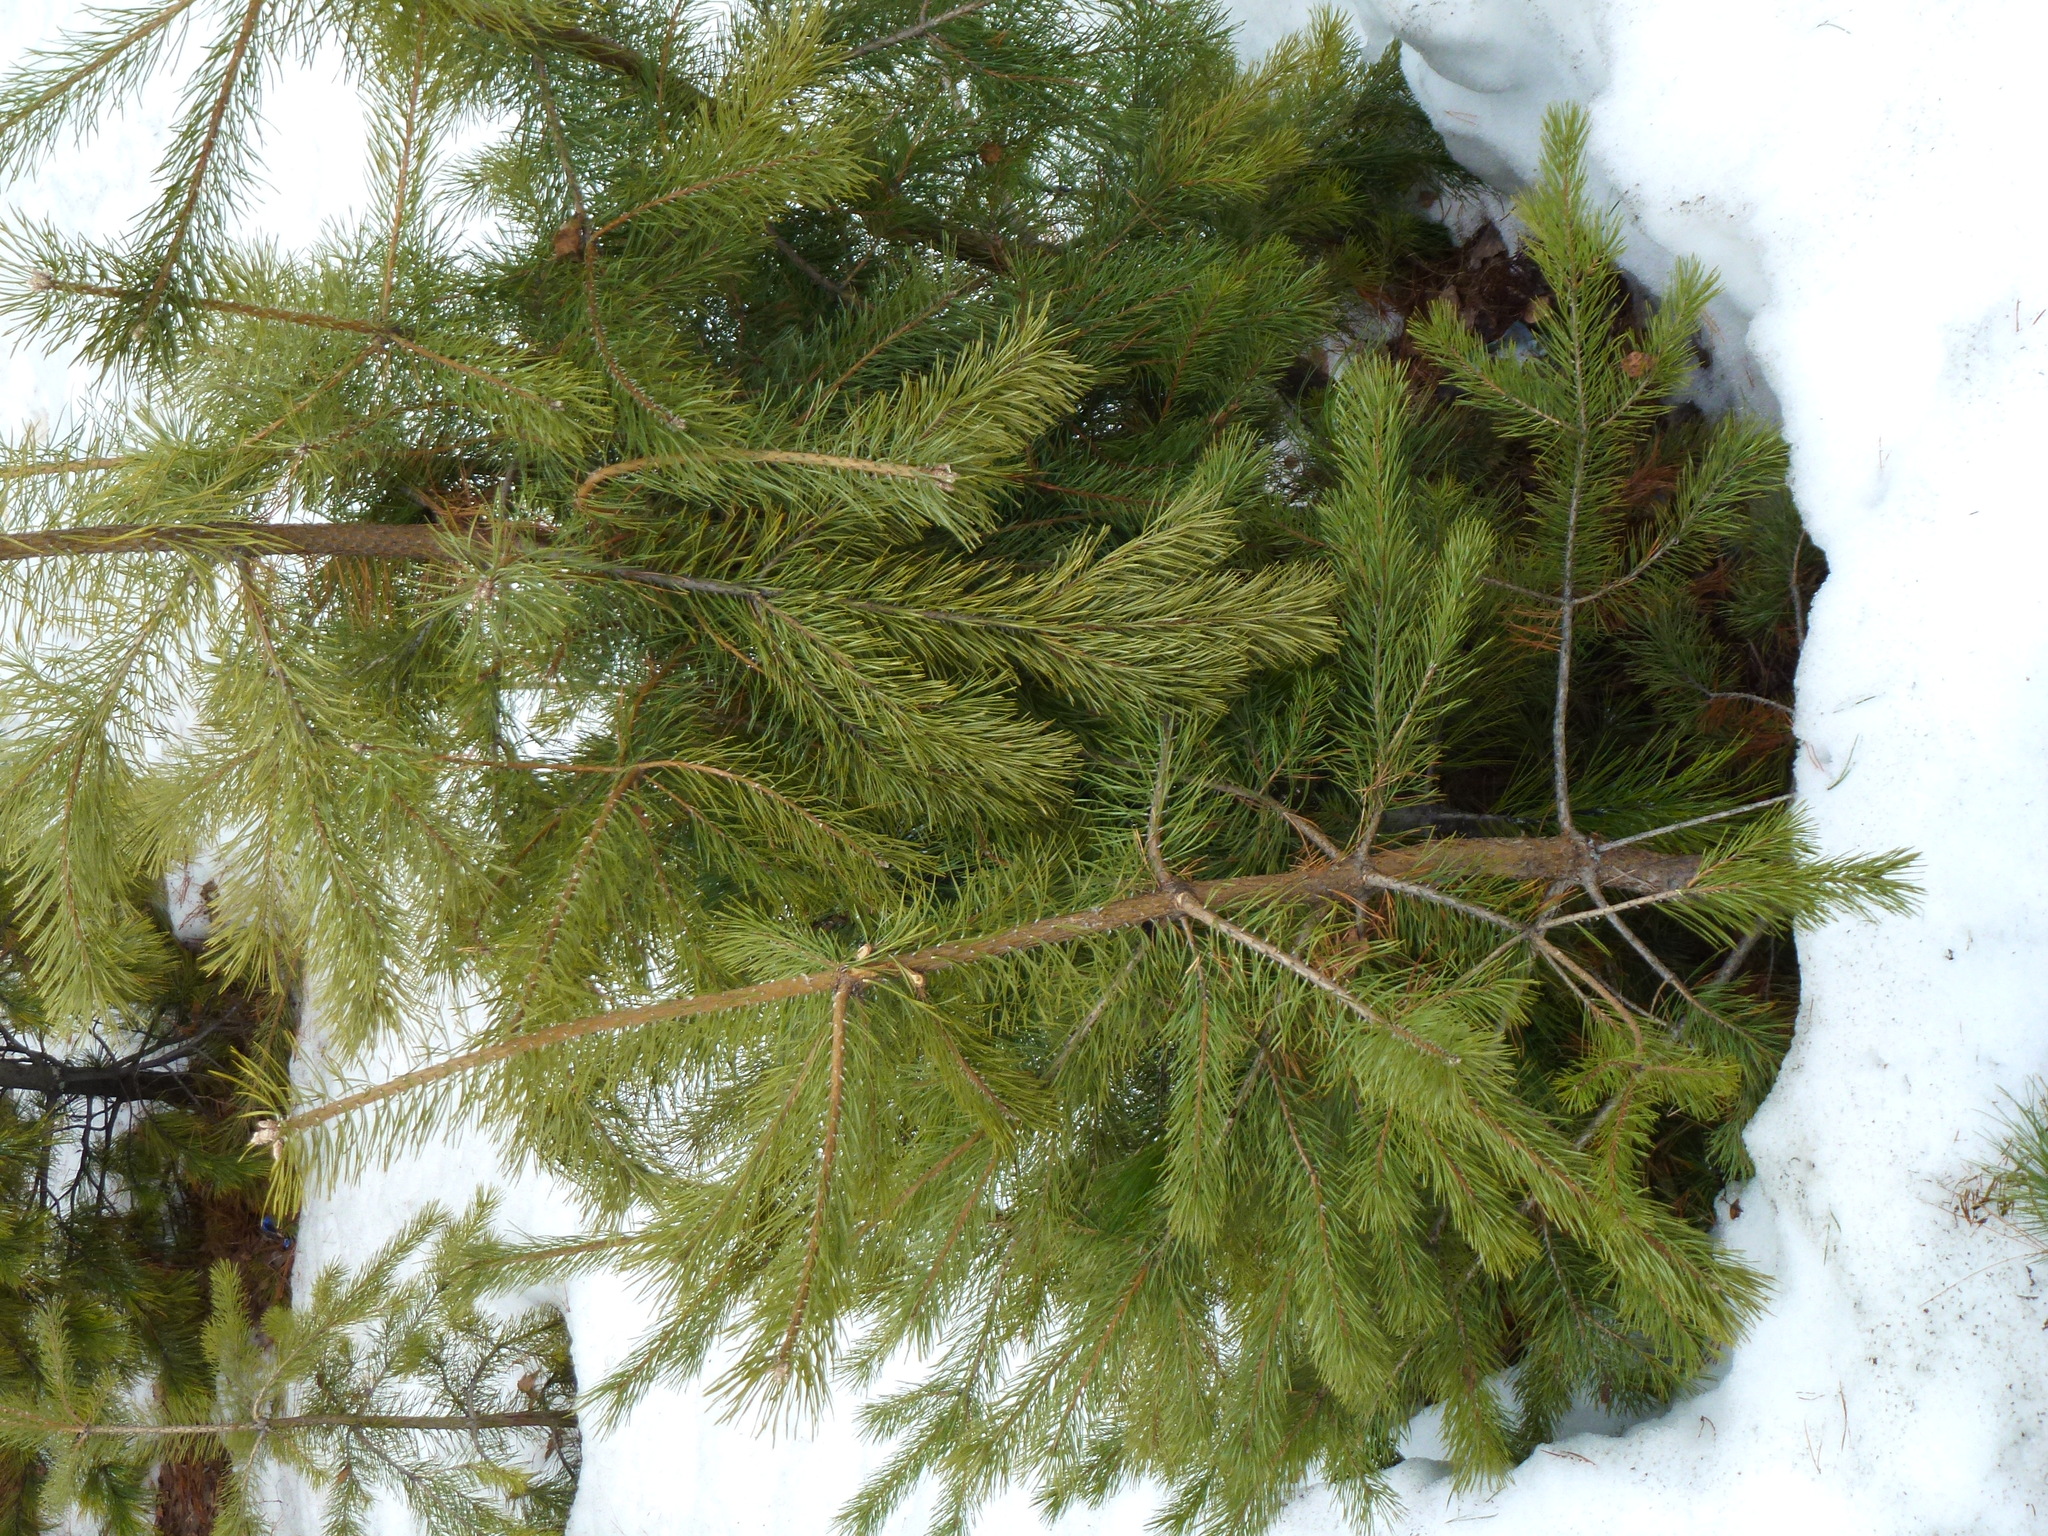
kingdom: Plantae
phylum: Tracheophyta
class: Pinopsida
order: Pinales
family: Pinaceae
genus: Pinus
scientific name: Pinus sylvestris
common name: Scots pine
